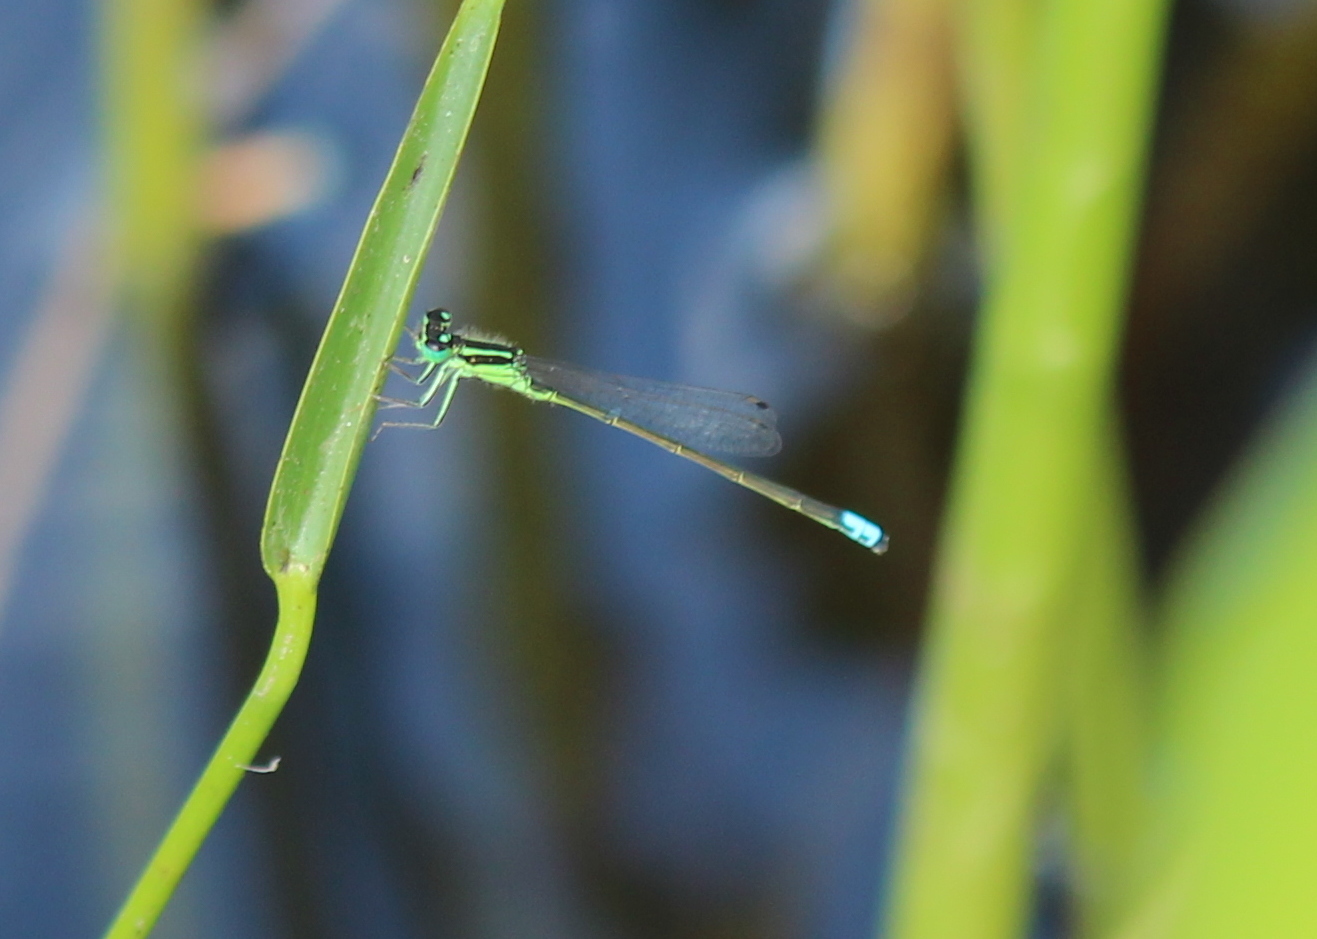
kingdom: Animalia
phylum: Arthropoda
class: Insecta
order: Odonata
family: Coenagrionidae
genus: Ischnura
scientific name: Ischnura verticalis
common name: Eastern forktail
